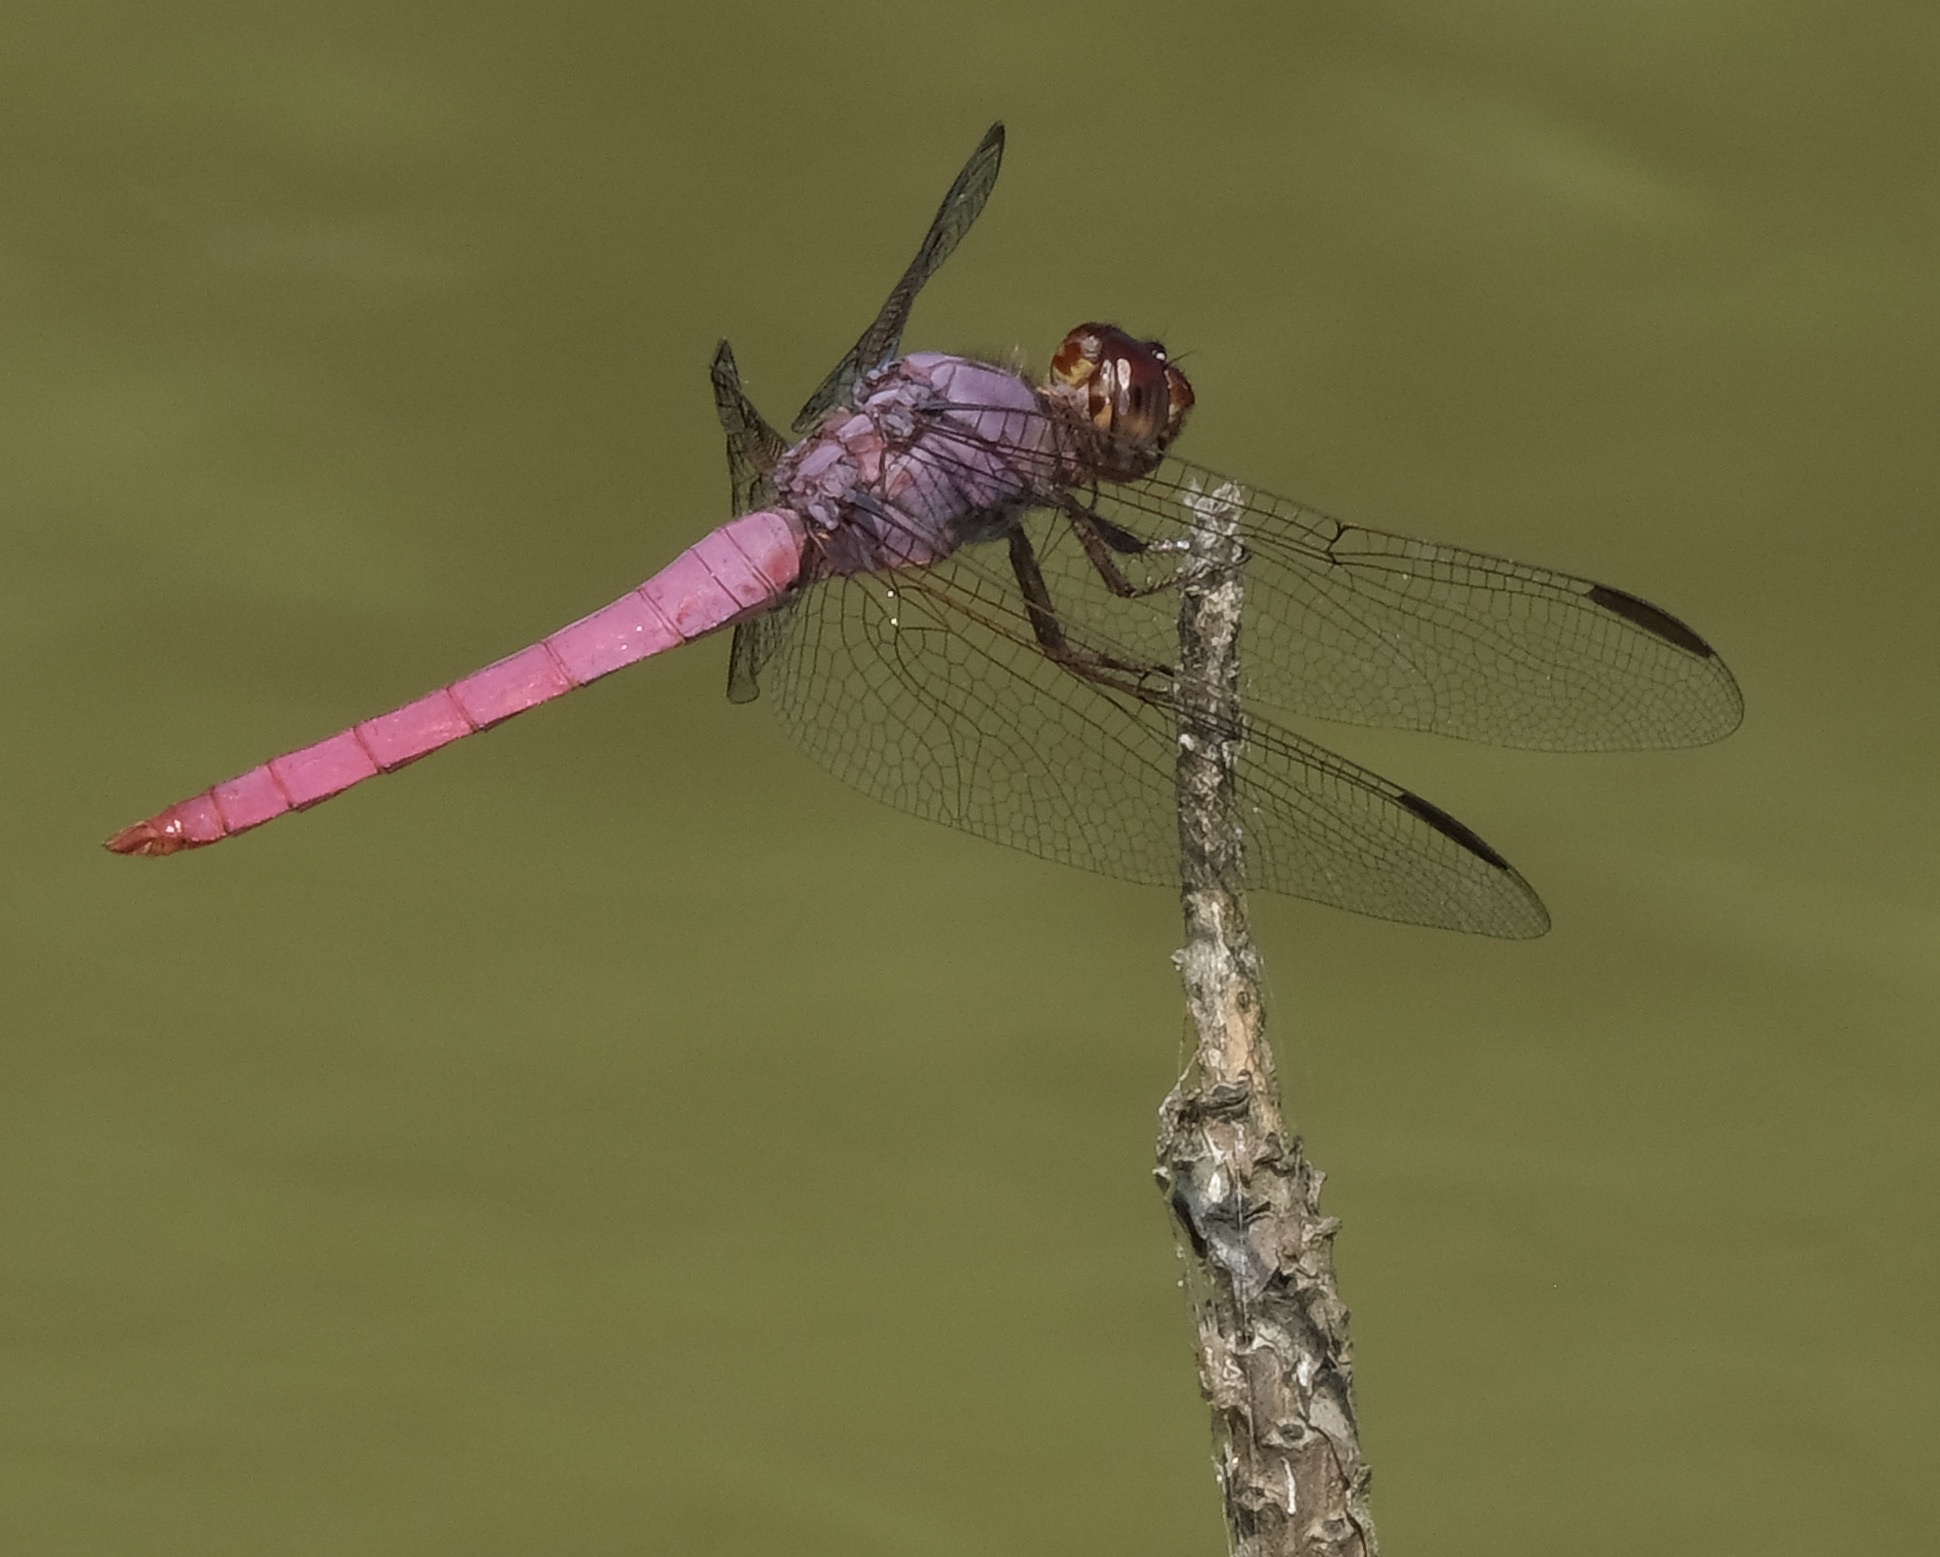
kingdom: Animalia
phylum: Arthropoda
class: Insecta
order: Odonata
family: Libellulidae
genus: Orthemis
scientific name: Orthemis ferruginea
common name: Roseate skimmer
